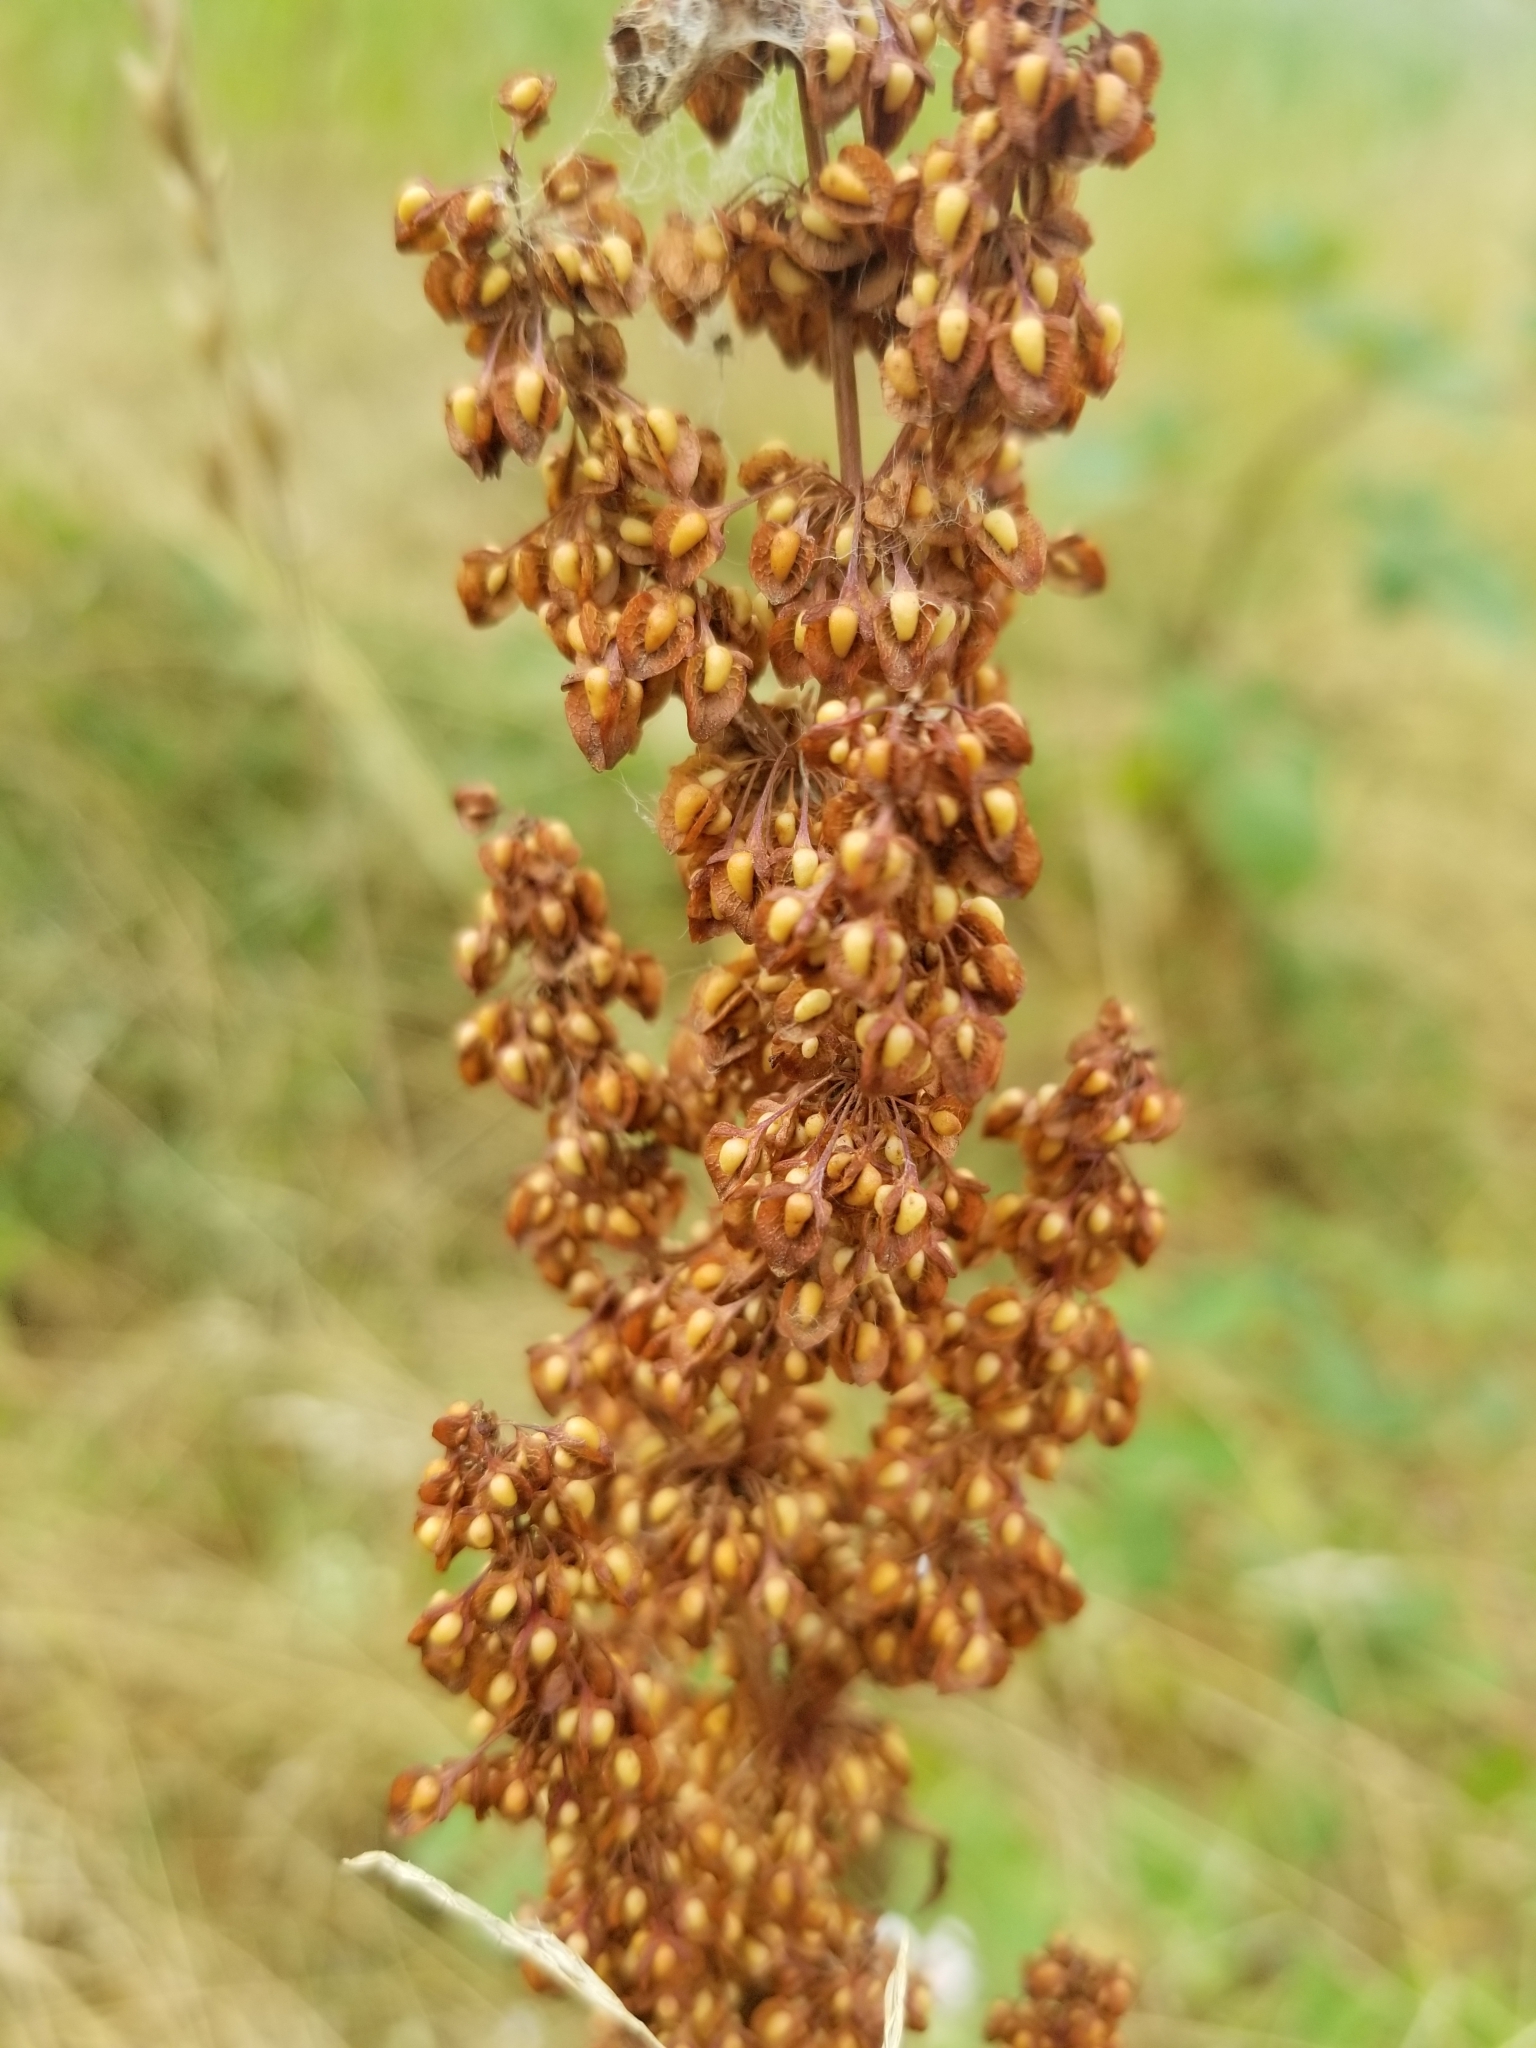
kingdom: Plantae
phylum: Tracheophyta
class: Magnoliopsida
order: Caryophyllales
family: Polygonaceae
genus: Rumex
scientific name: Rumex crispus
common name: Curled dock
